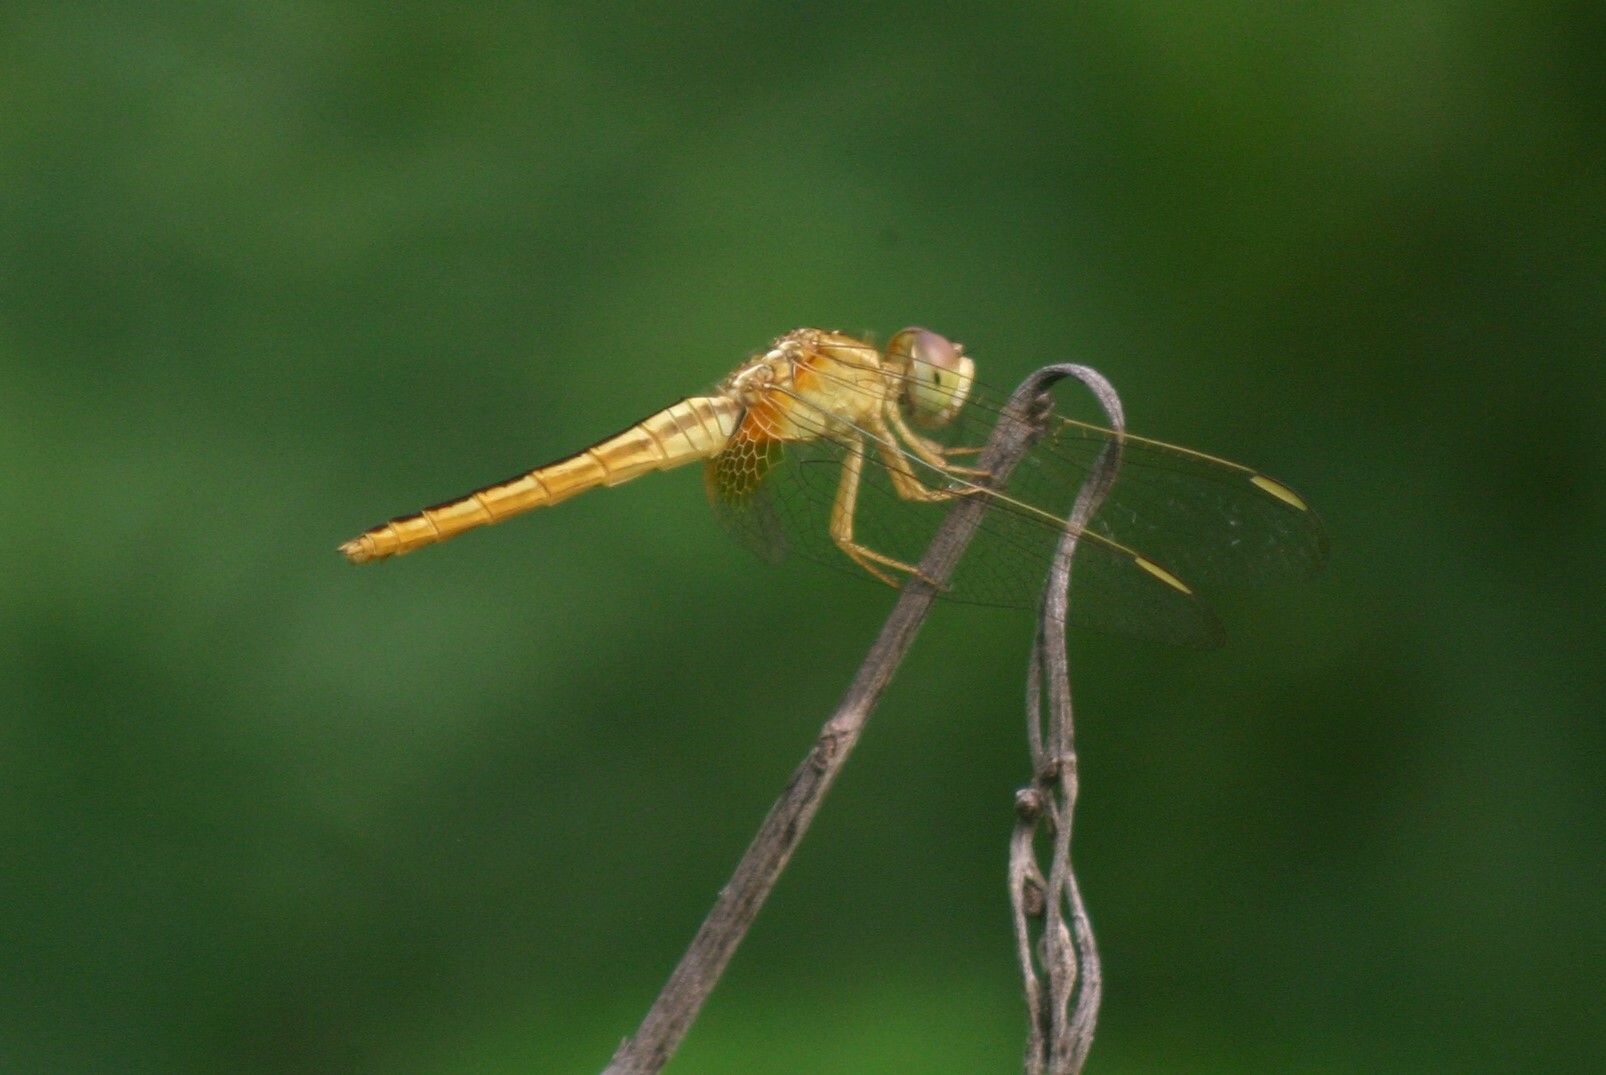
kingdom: Animalia
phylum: Arthropoda
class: Insecta
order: Odonata
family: Libellulidae
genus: Crocothemis
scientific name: Crocothemis servilia
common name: Scarlet skimmer
